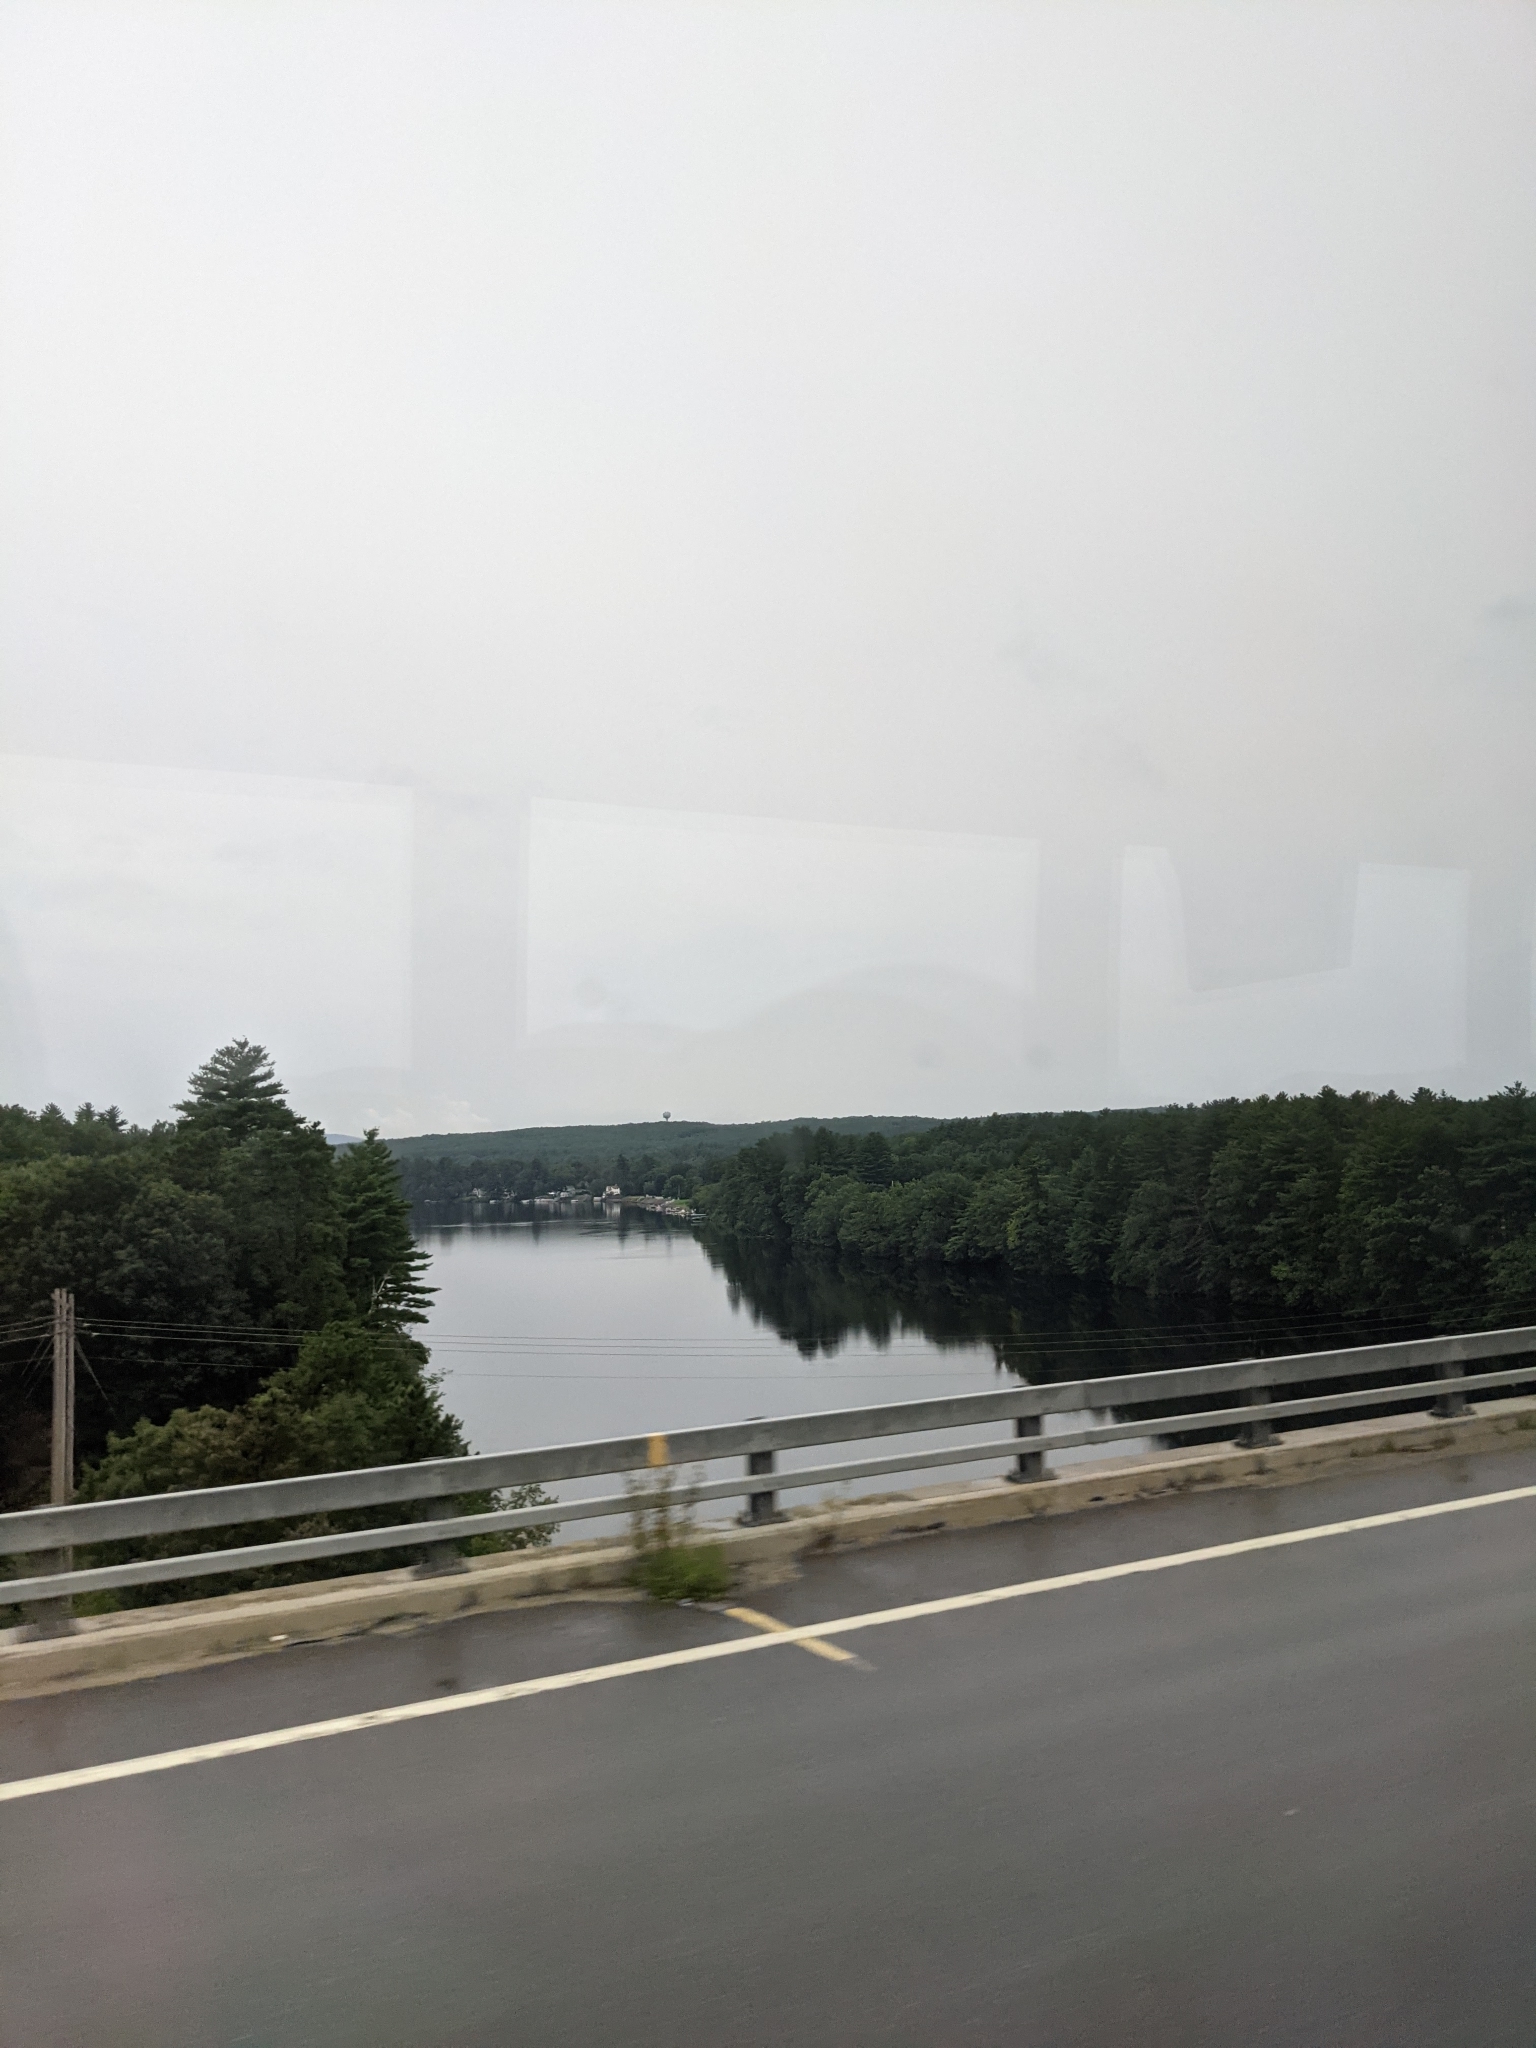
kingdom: Plantae
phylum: Tracheophyta
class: Pinopsida
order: Pinales
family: Pinaceae
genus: Pinus
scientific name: Pinus strobus
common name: Weymouth pine
